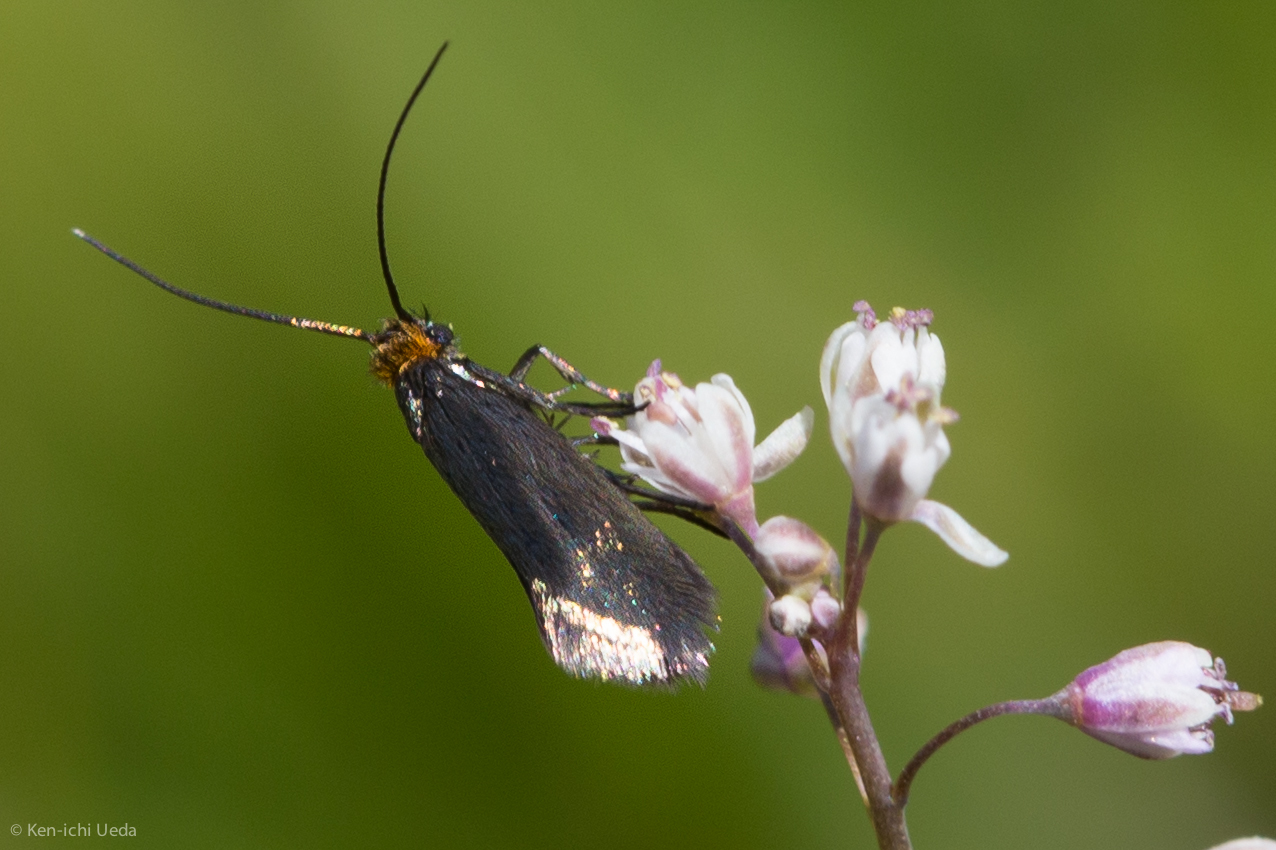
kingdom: Animalia
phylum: Arthropoda
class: Insecta
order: Lepidoptera
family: Adelidae
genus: Cauchas
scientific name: Cauchas simpliciella
